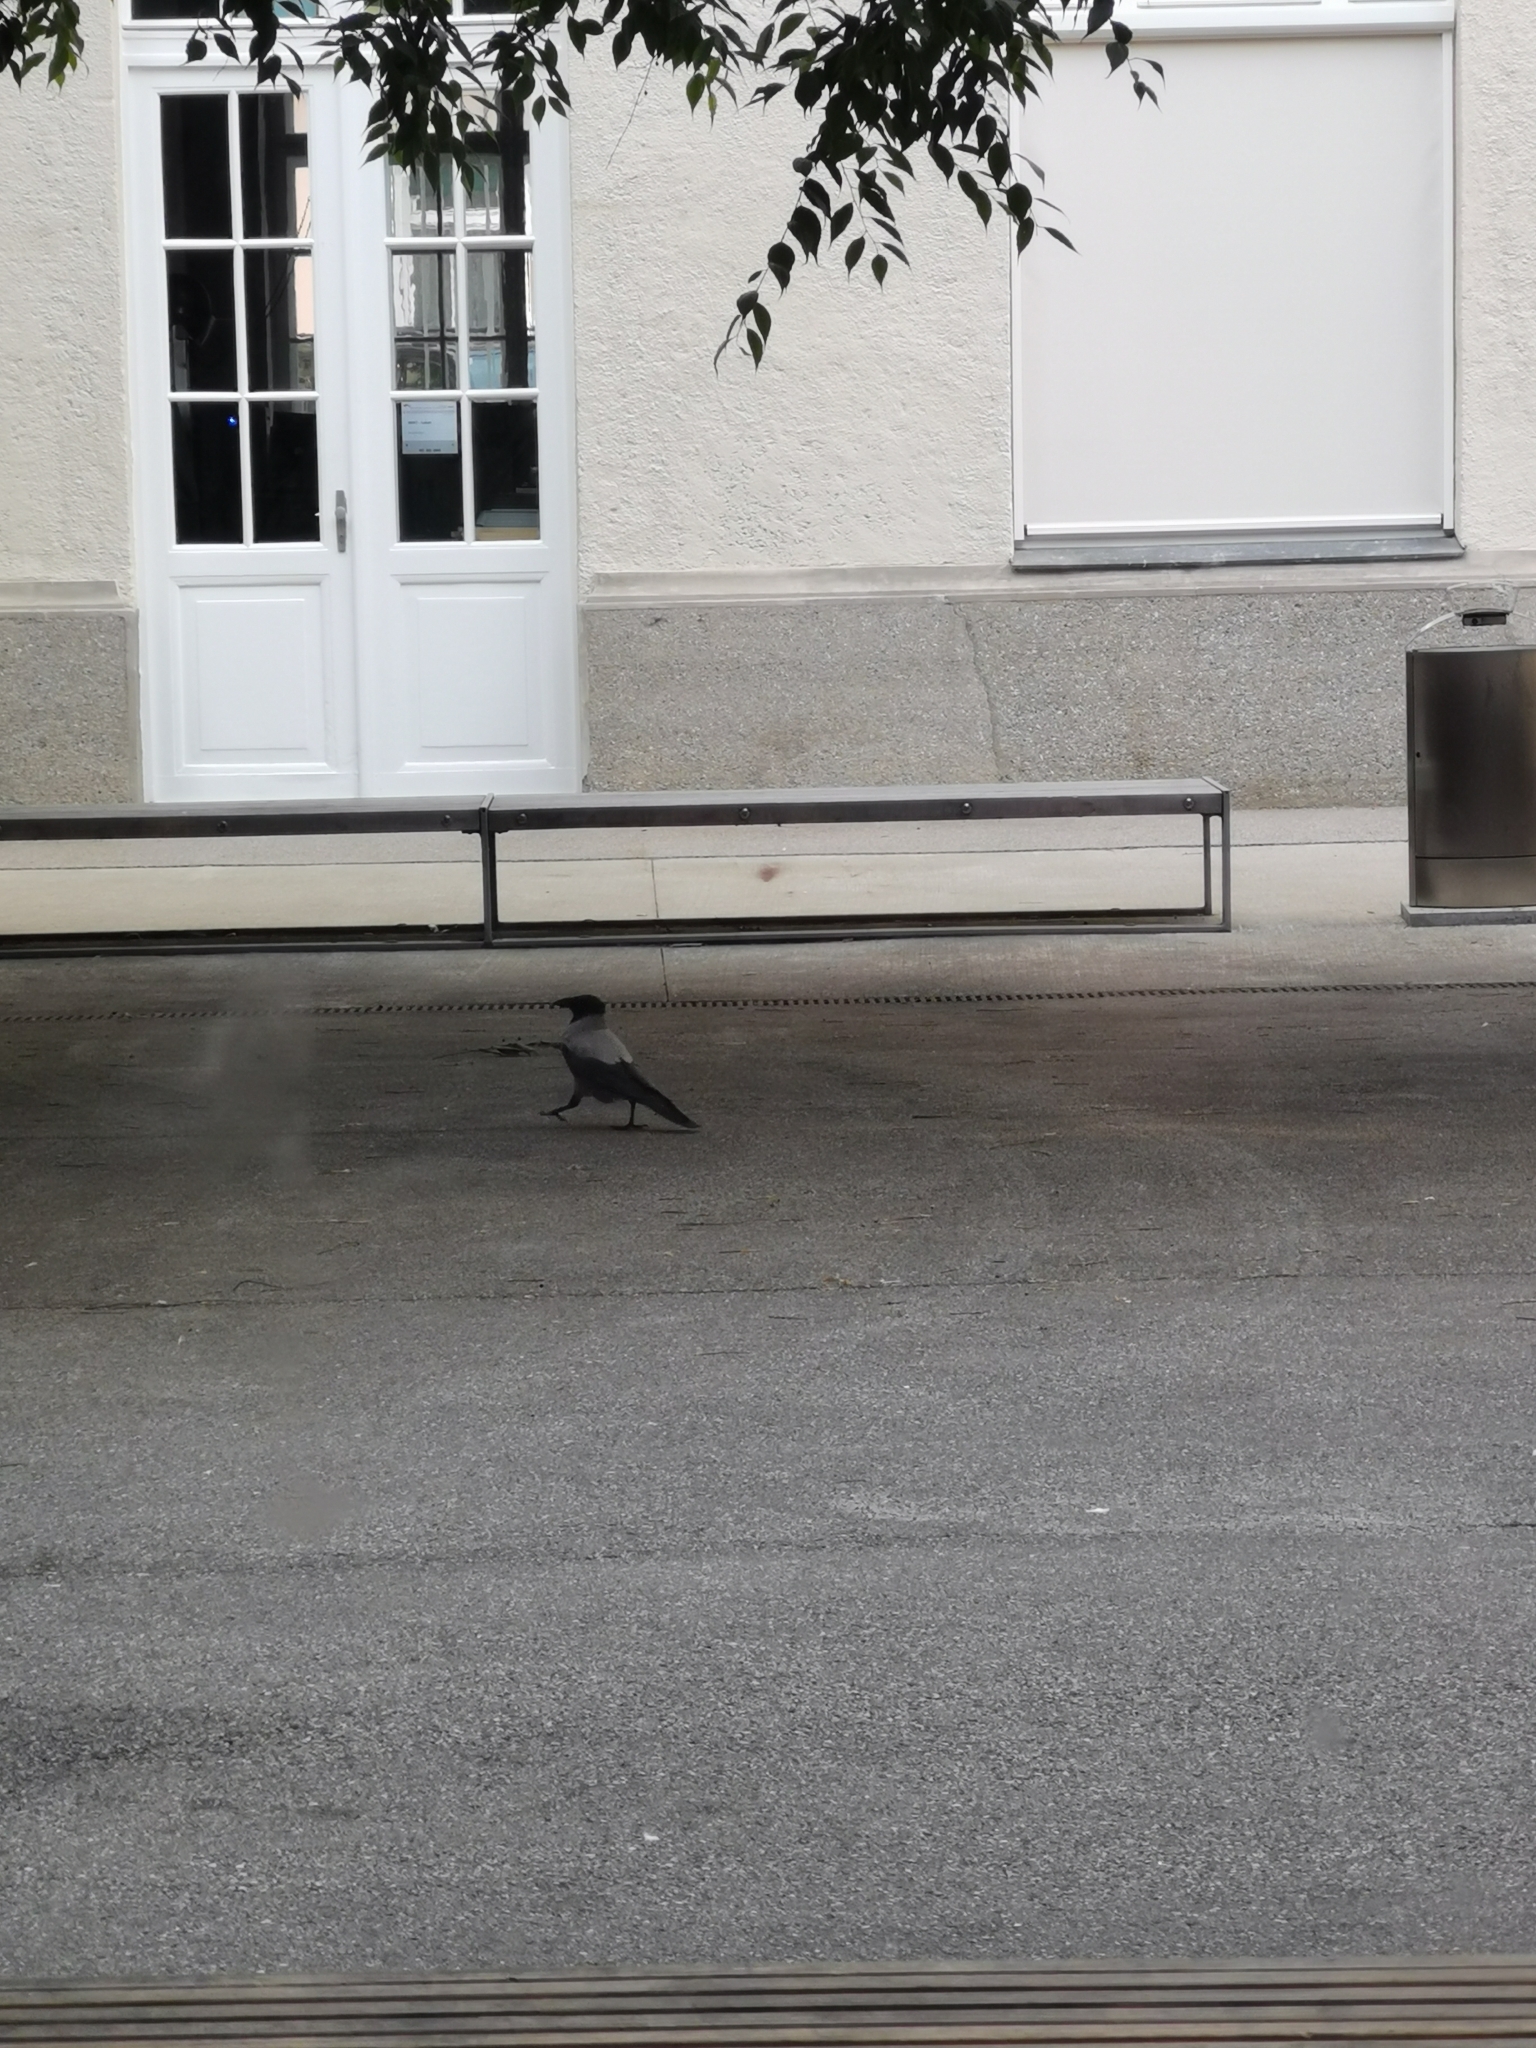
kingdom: Animalia
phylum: Chordata
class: Aves
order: Passeriformes
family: Corvidae
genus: Corvus
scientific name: Corvus cornix
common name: Hooded crow
